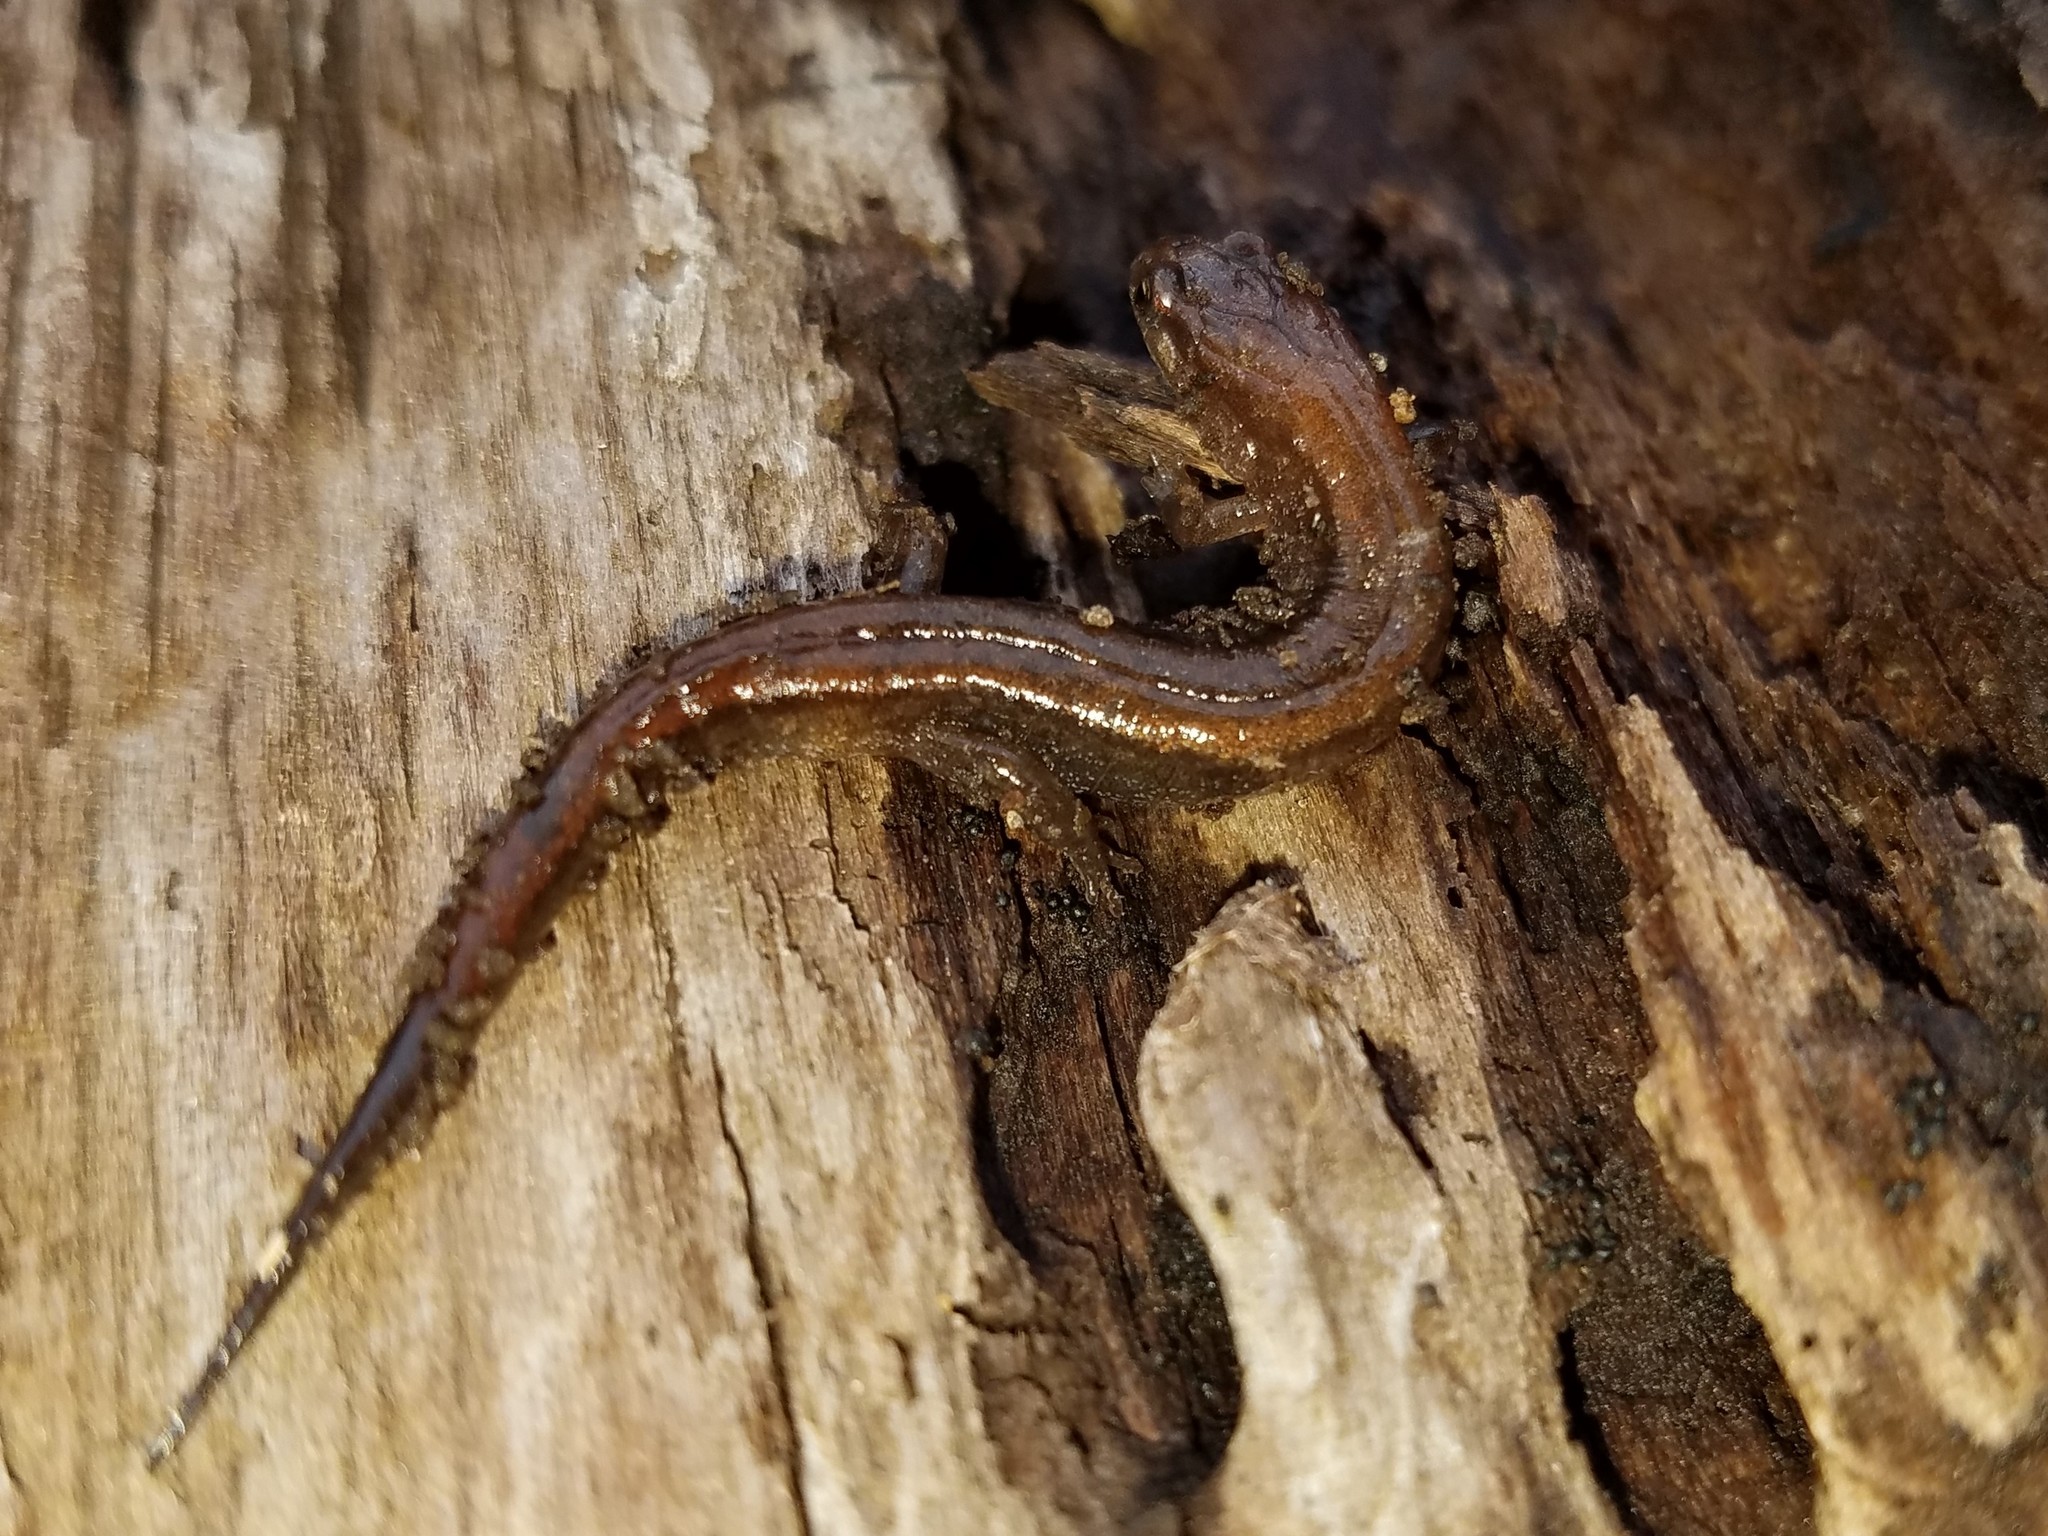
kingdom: Animalia
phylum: Chordata
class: Amphibia
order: Caudata
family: Plethodontidae
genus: Desmognathus
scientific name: Desmognathus aeneus
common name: Seepage salamander
